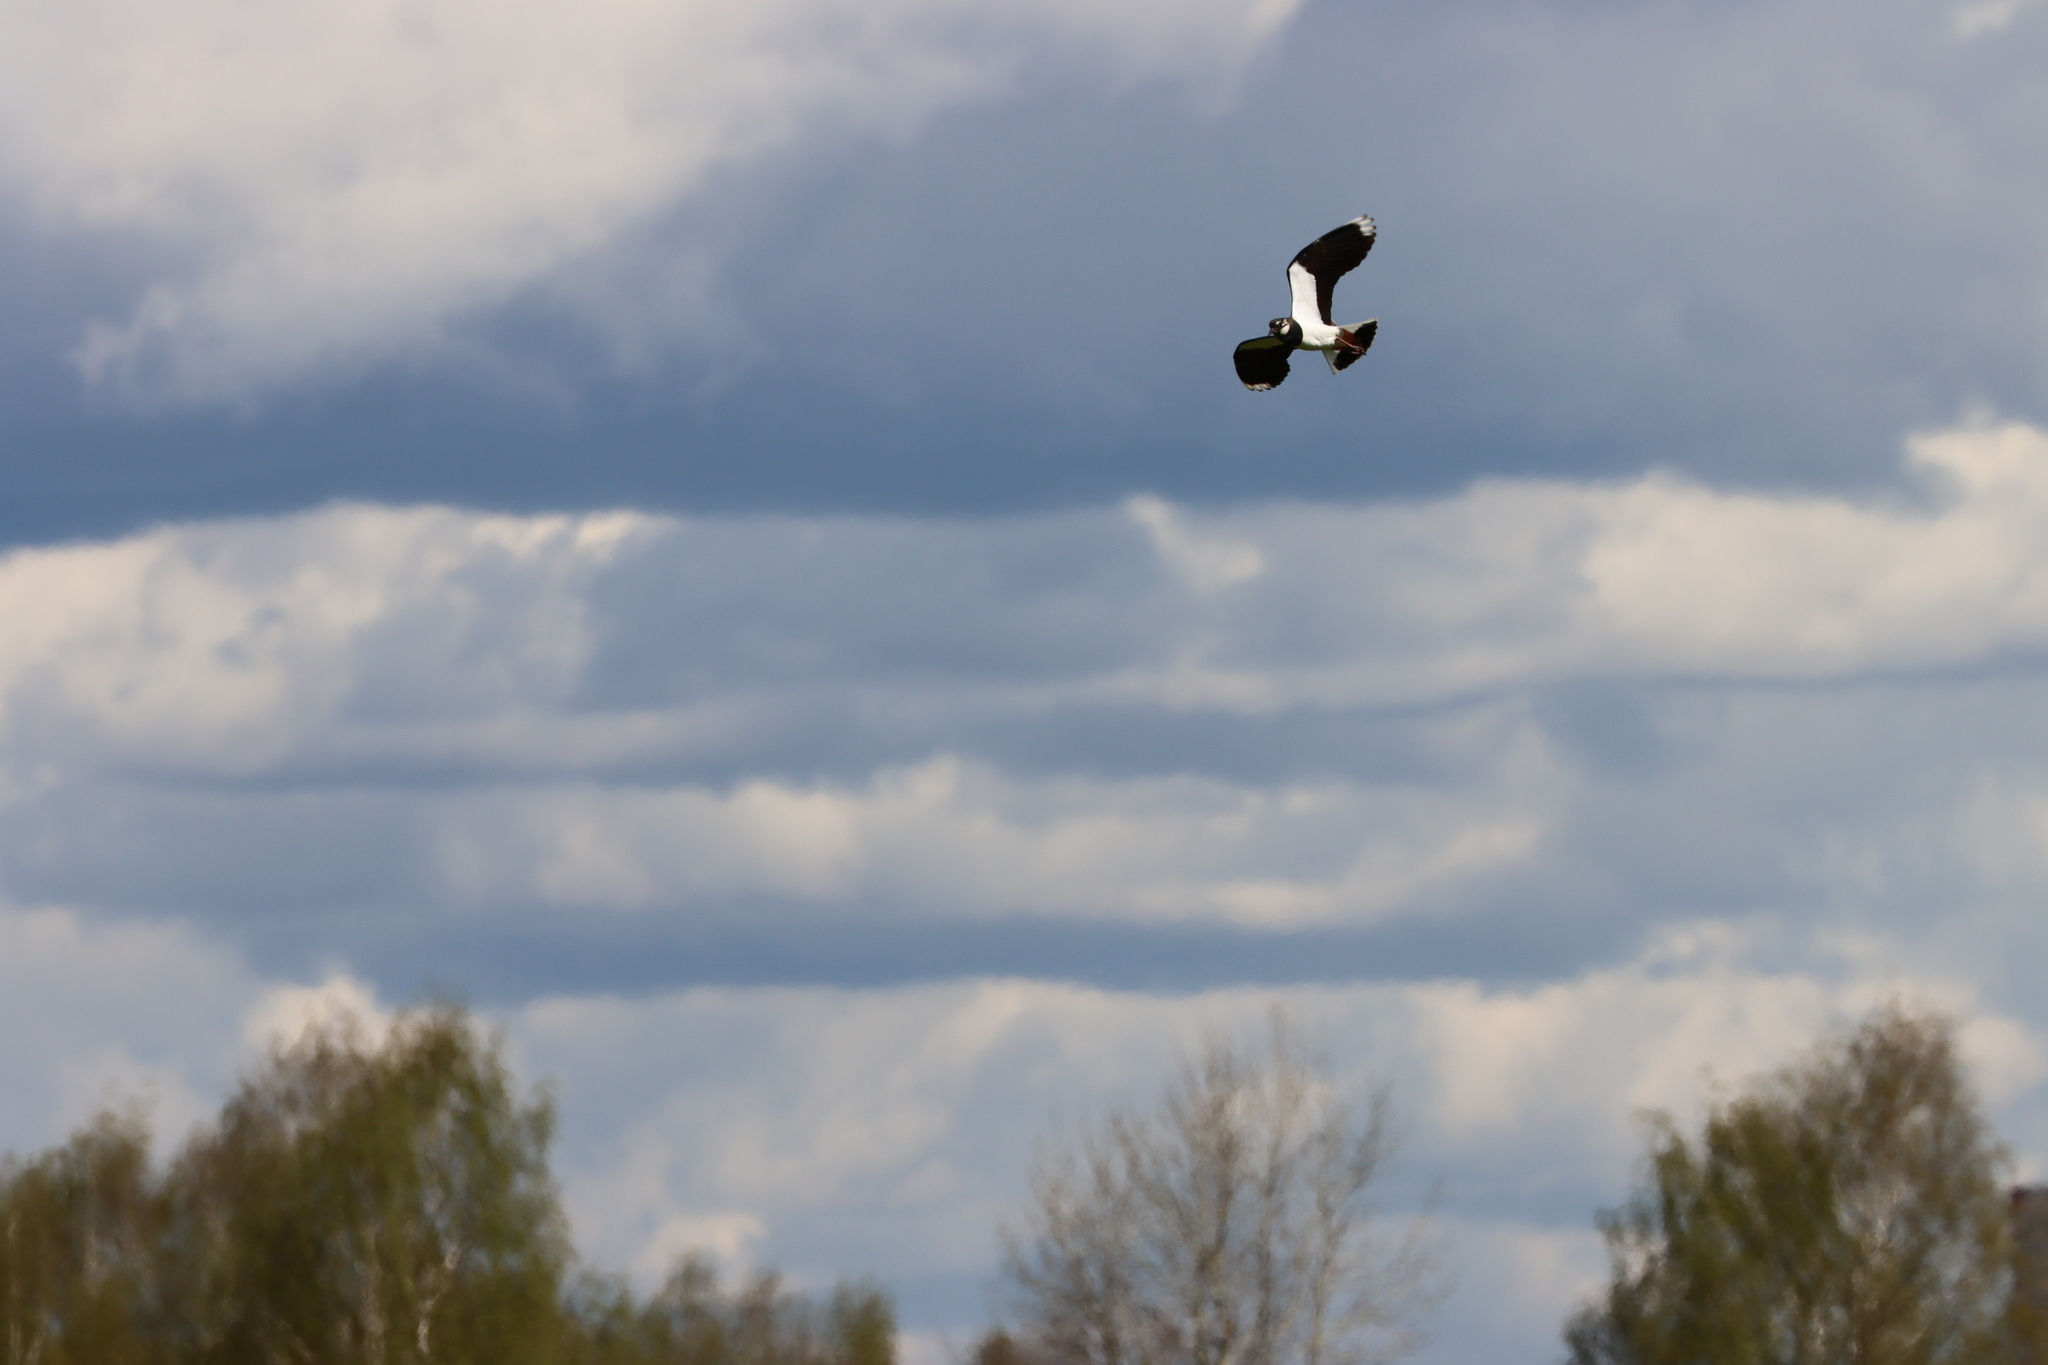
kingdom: Animalia
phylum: Chordata
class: Aves
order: Charadriiformes
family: Charadriidae
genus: Vanellus
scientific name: Vanellus vanellus
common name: Northern lapwing
